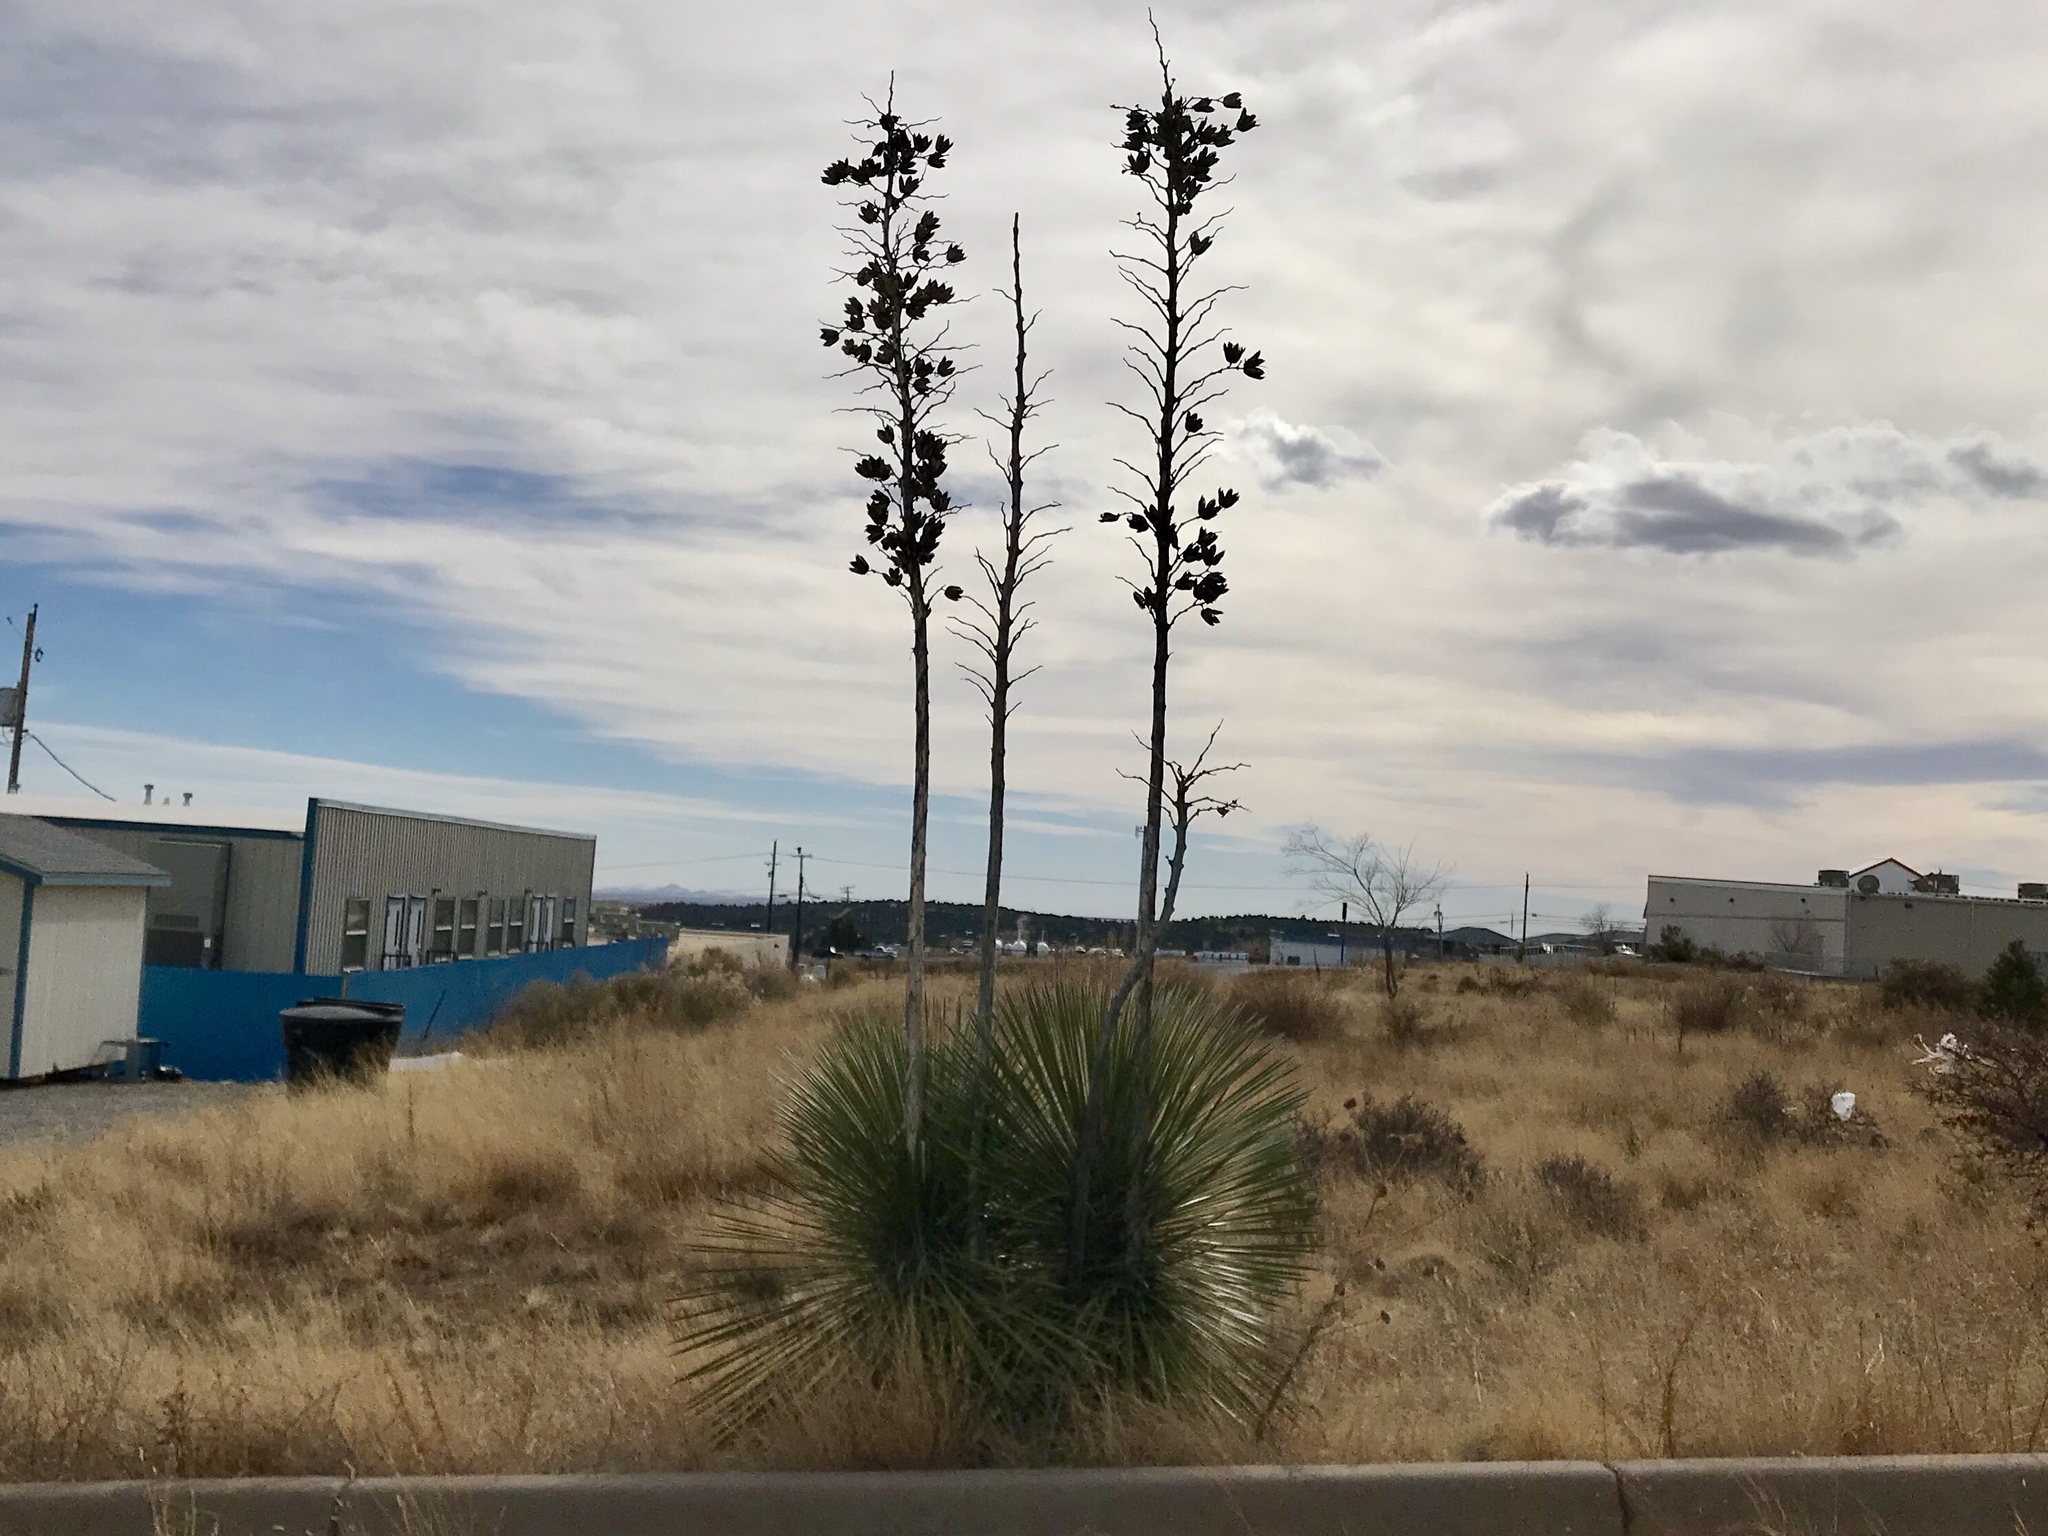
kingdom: Plantae
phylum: Tracheophyta
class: Liliopsida
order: Asparagales
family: Asparagaceae
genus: Yucca
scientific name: Yucca elata
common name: Palmella
